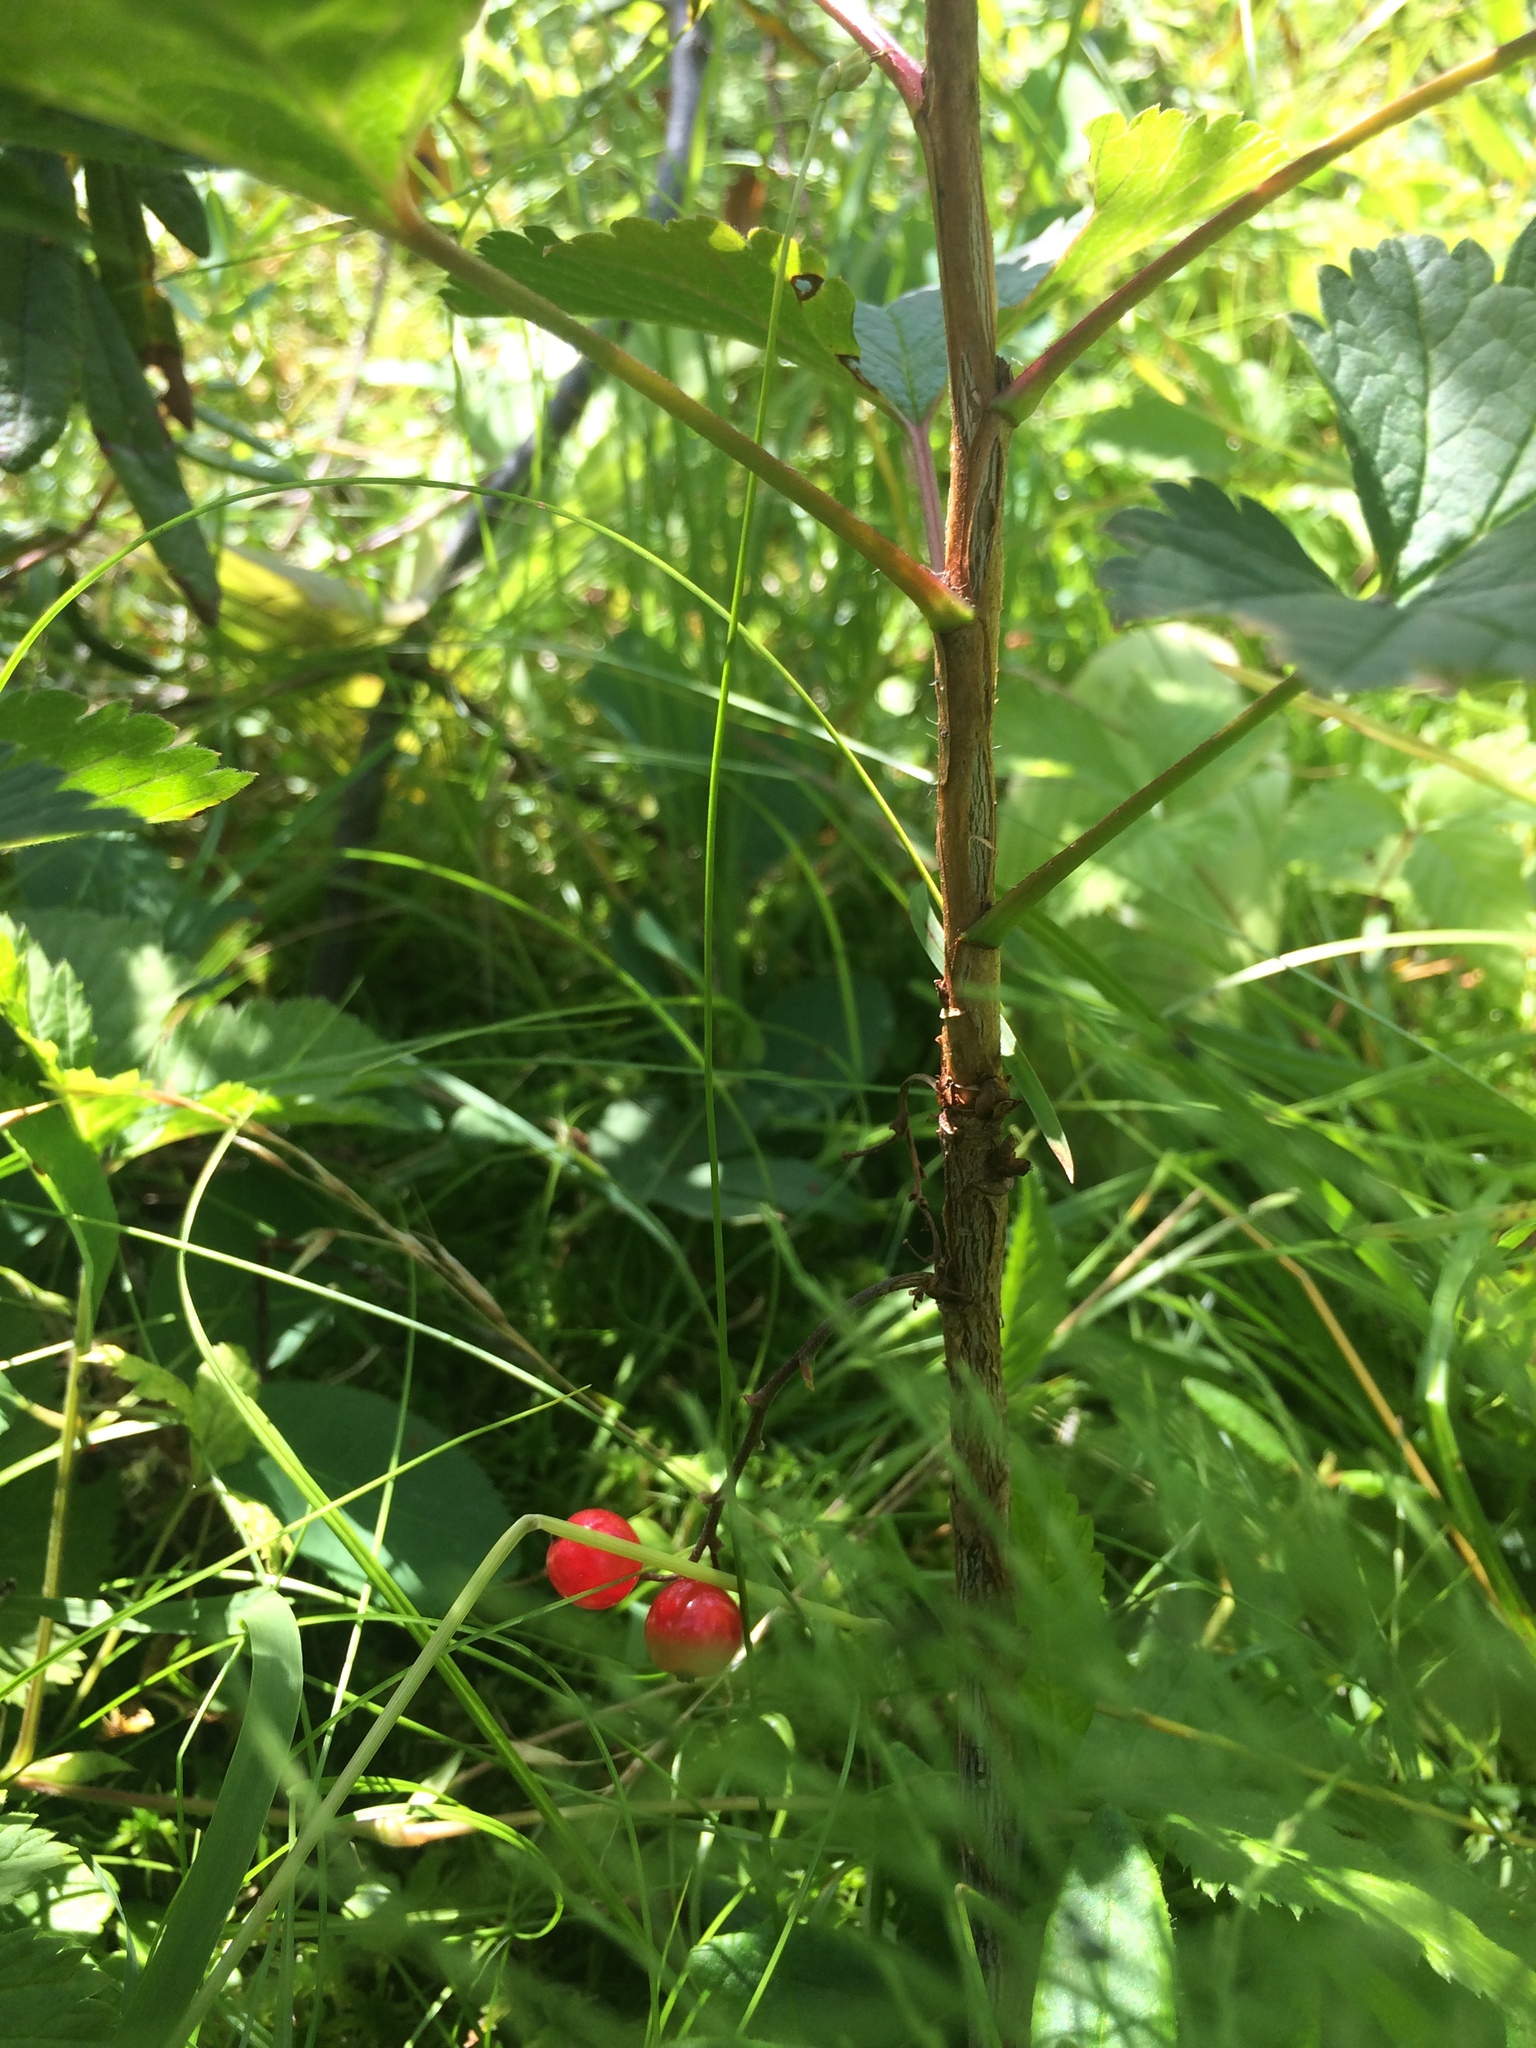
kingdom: Plantae
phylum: Tracheophyta
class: Magnoliopsida
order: Saxifragales
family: Grossulariaceae
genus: Ribes
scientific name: Ribes triste
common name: Swamp red currant
